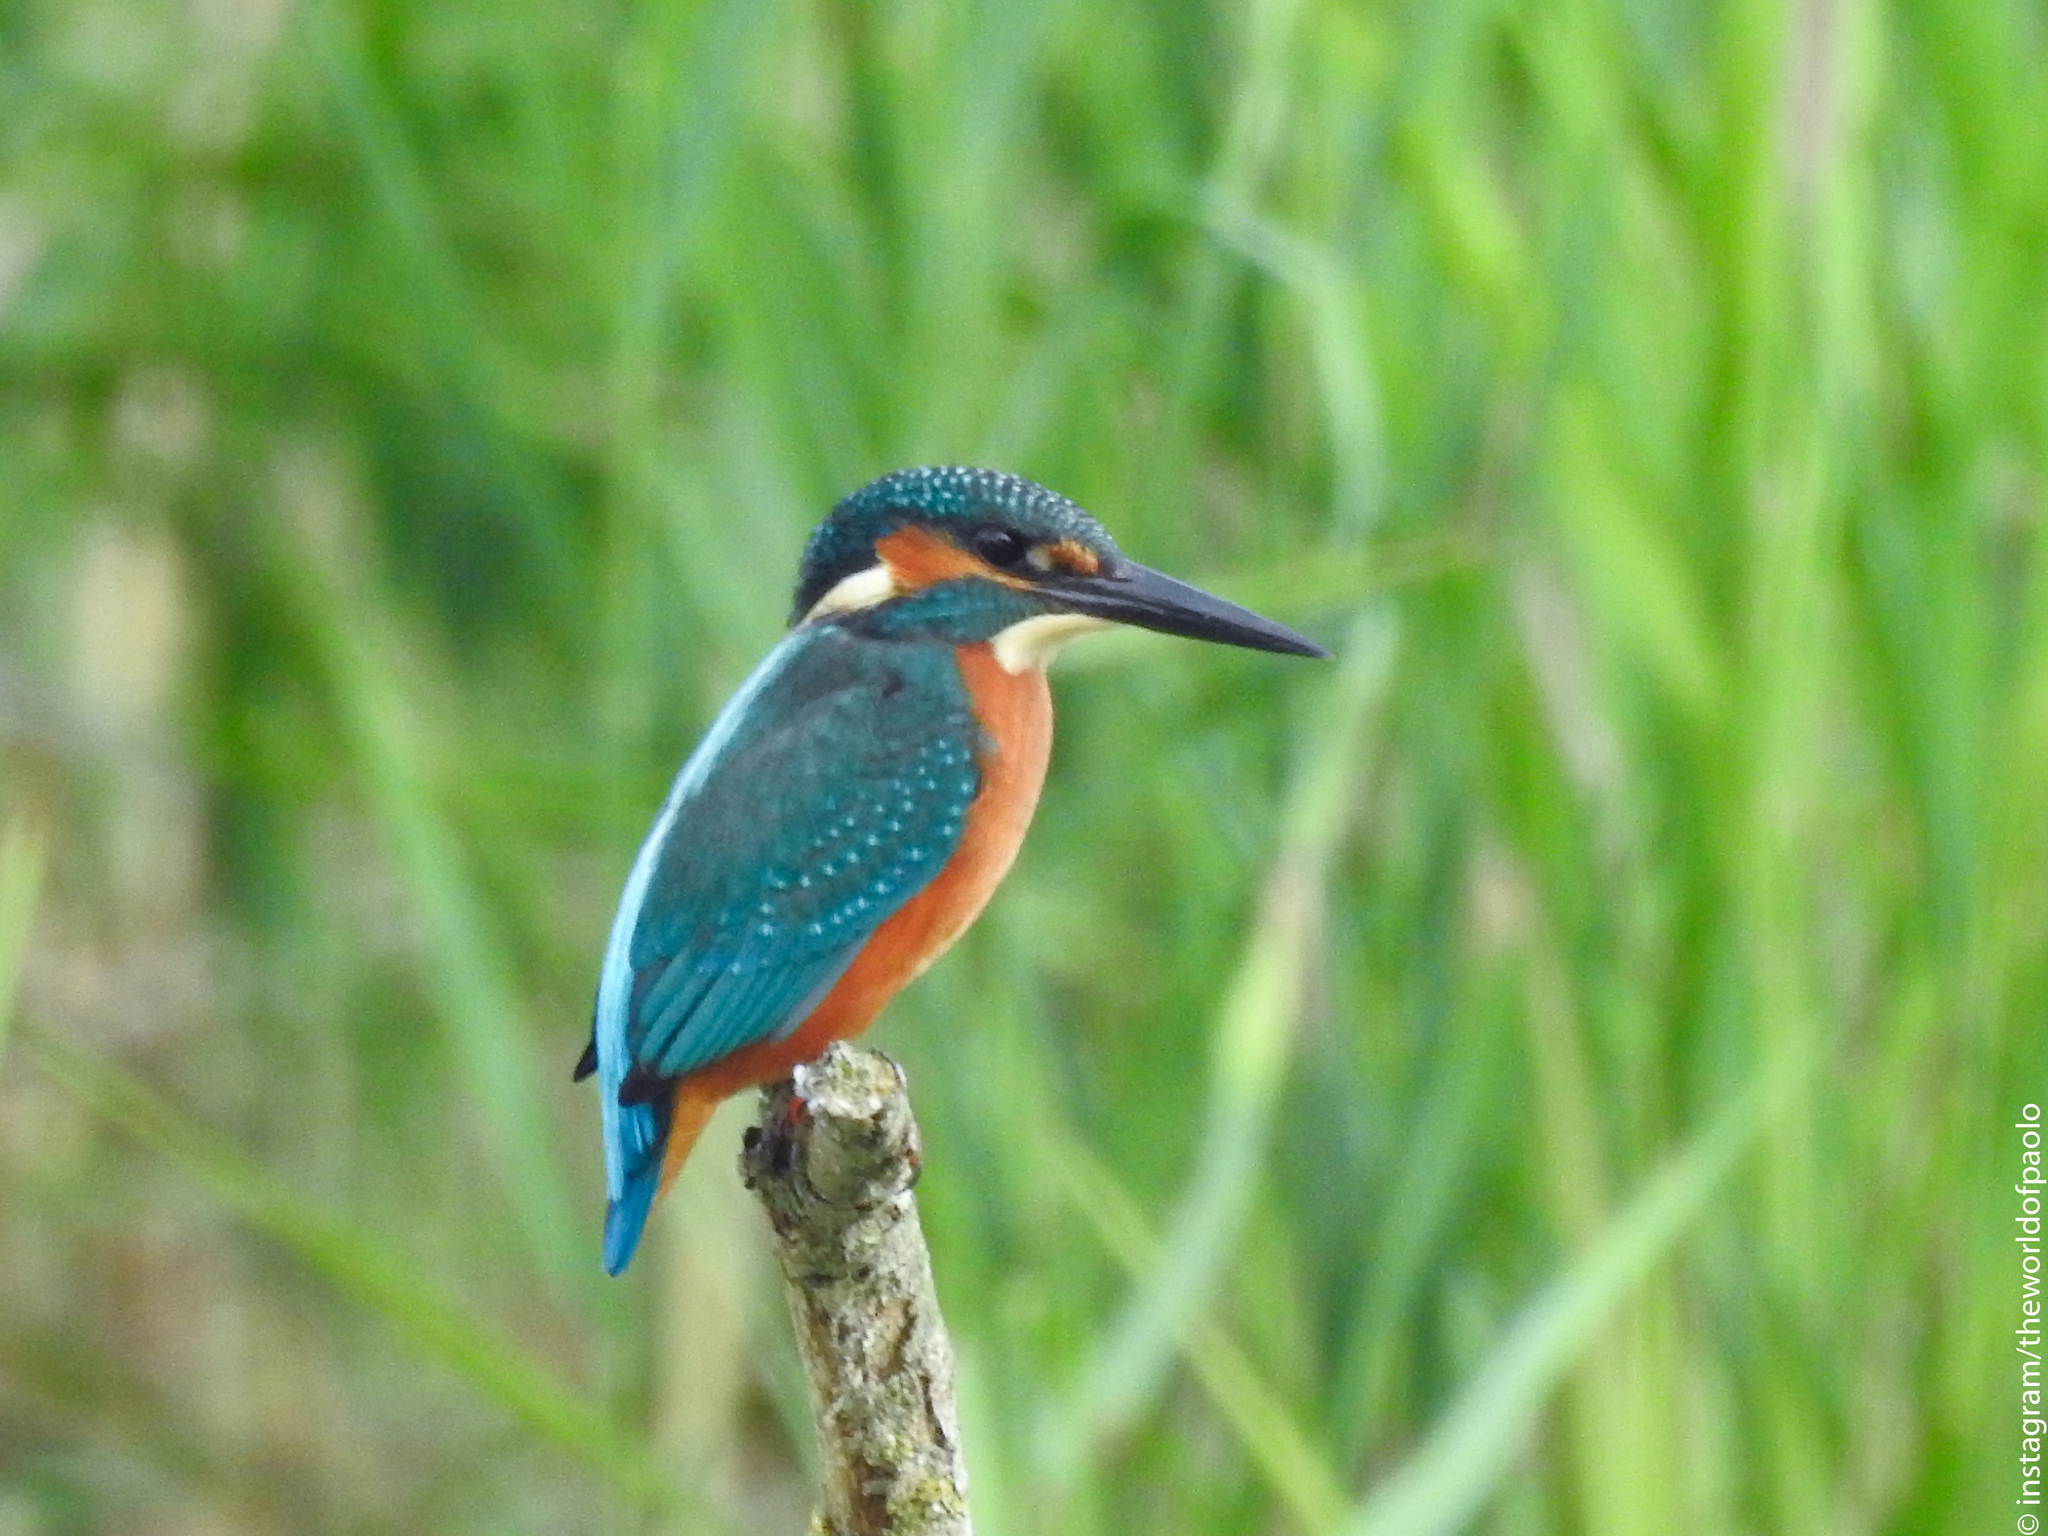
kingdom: Animalia
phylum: Chordata
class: Aves
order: Coraciiformes
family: Alcedinidae
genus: Alcedo
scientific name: Alcedo atthis
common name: Common kingfisher
